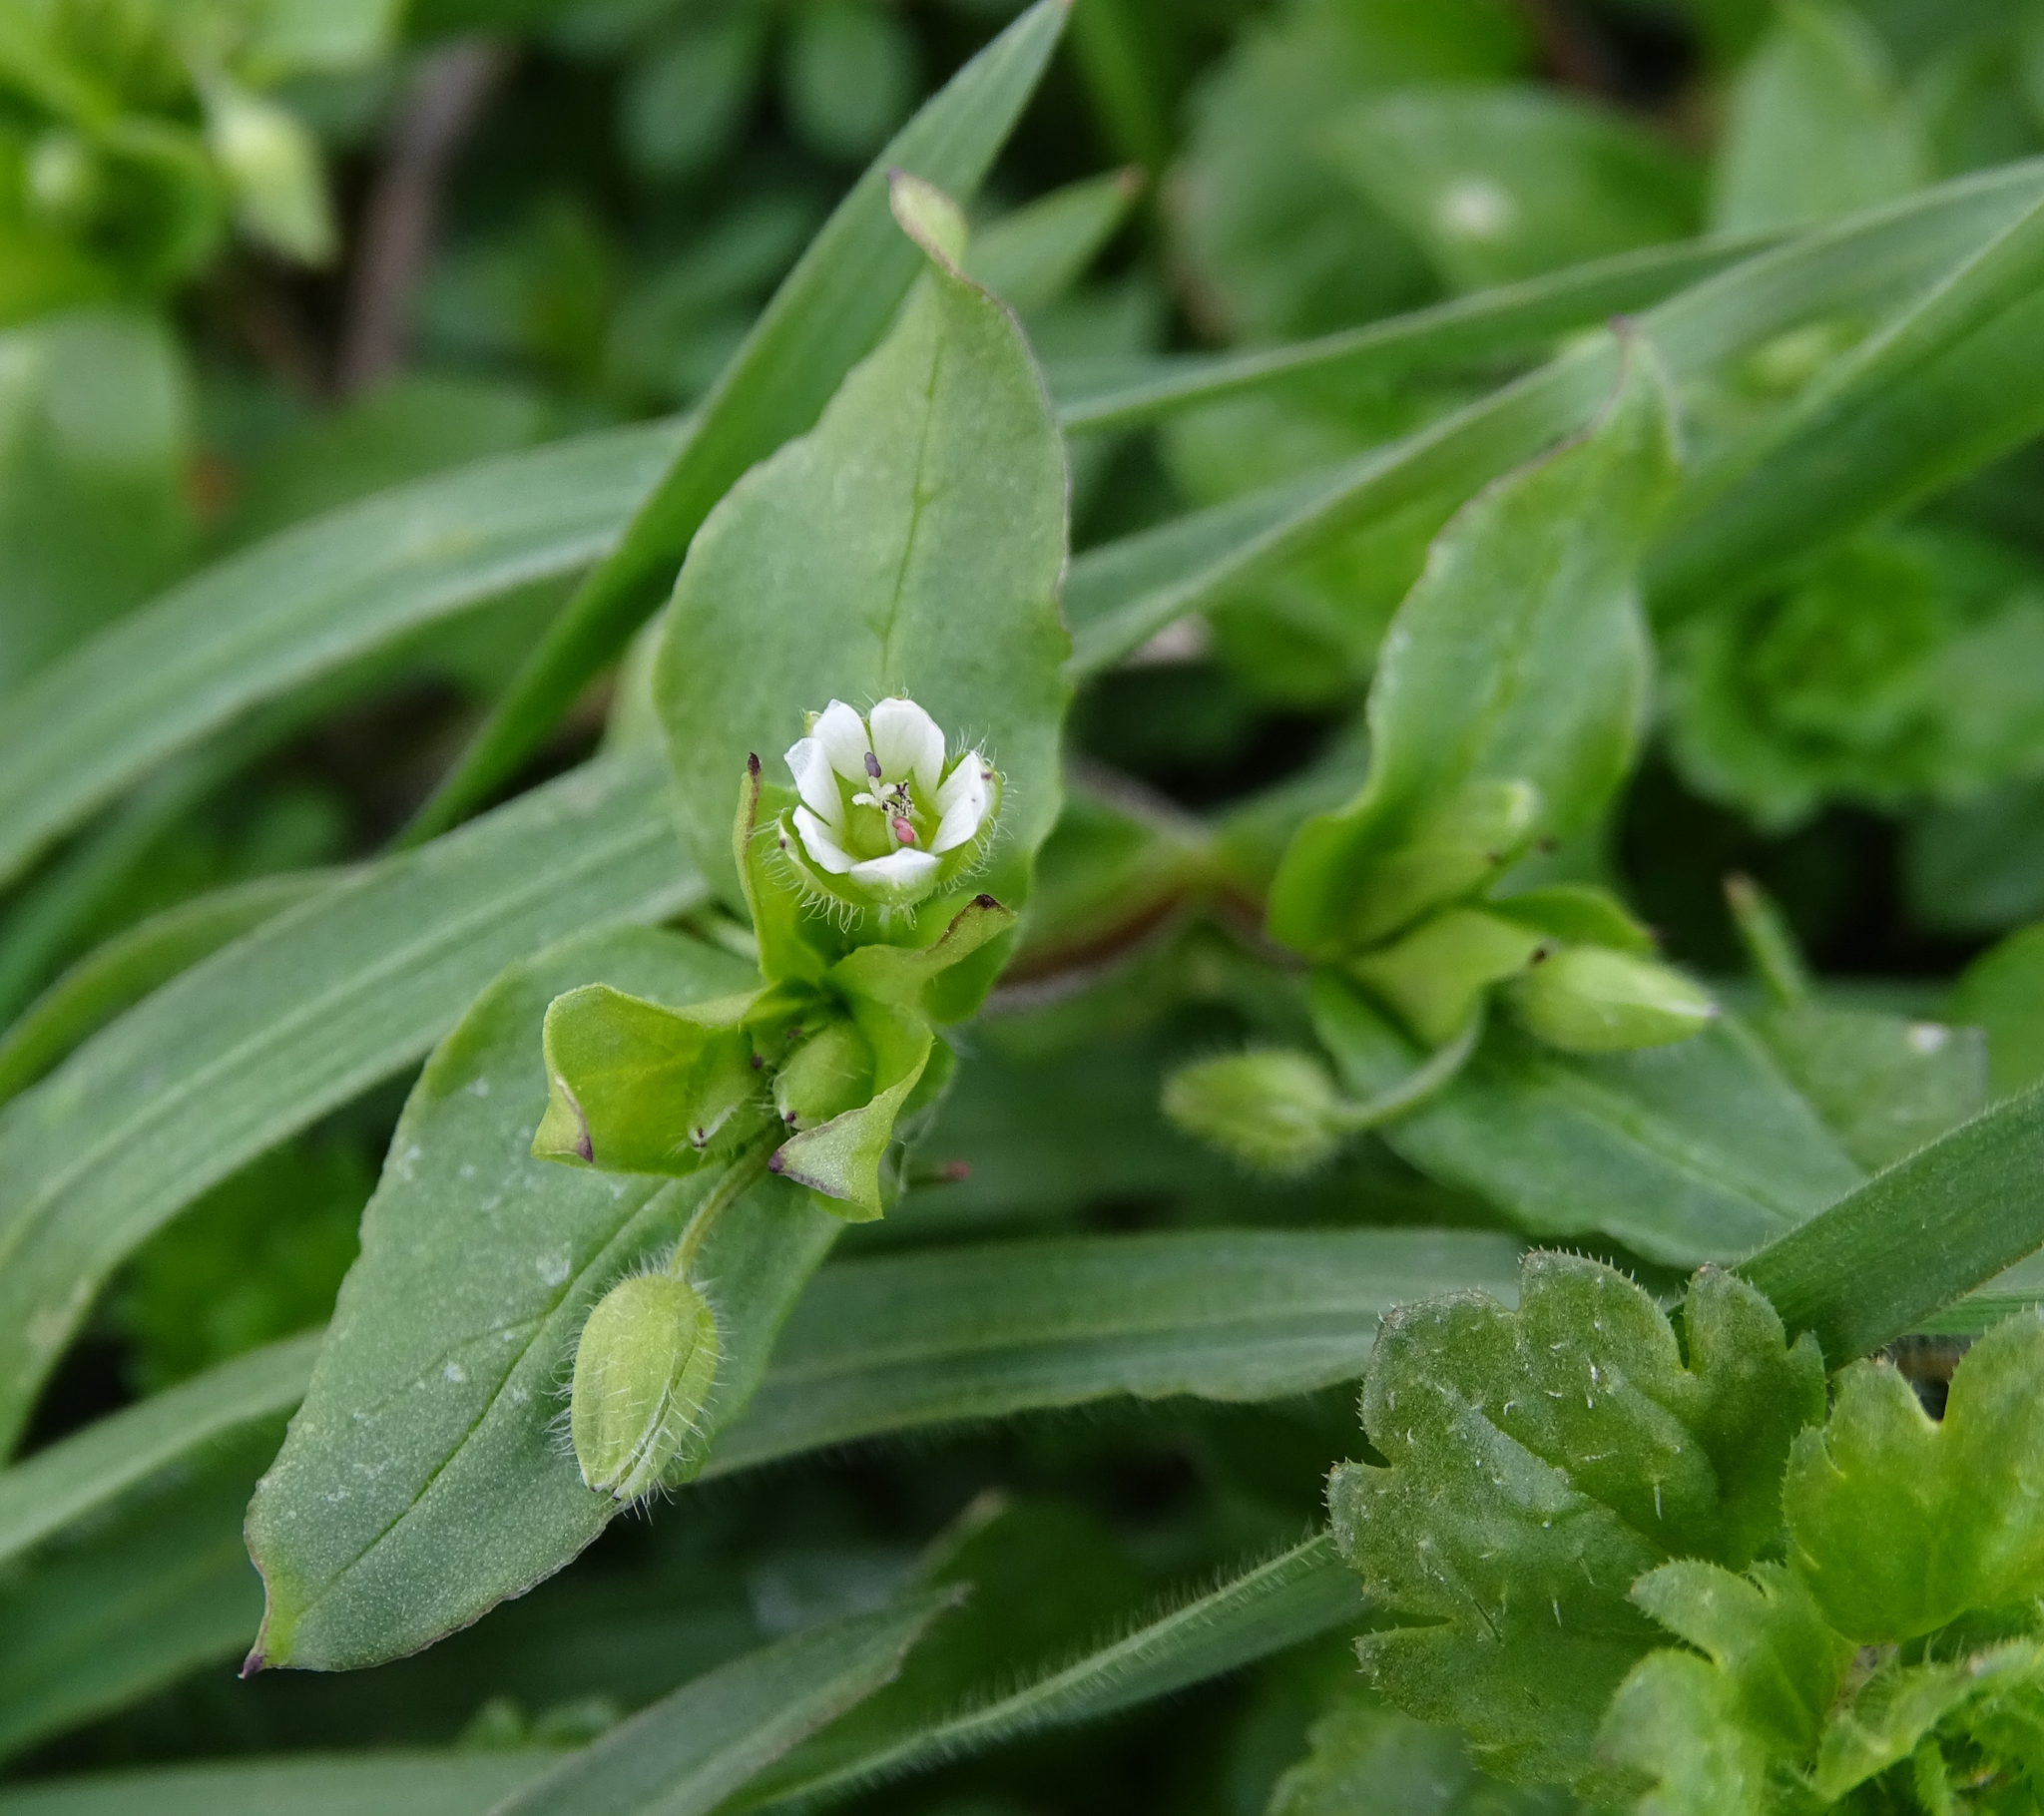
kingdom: Plantae
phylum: Tracheophyta
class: Magnoliopsida
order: Caryophyllales
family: Caryophyllaceae
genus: Stellaria
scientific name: Stellaria media
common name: Common chickweed
